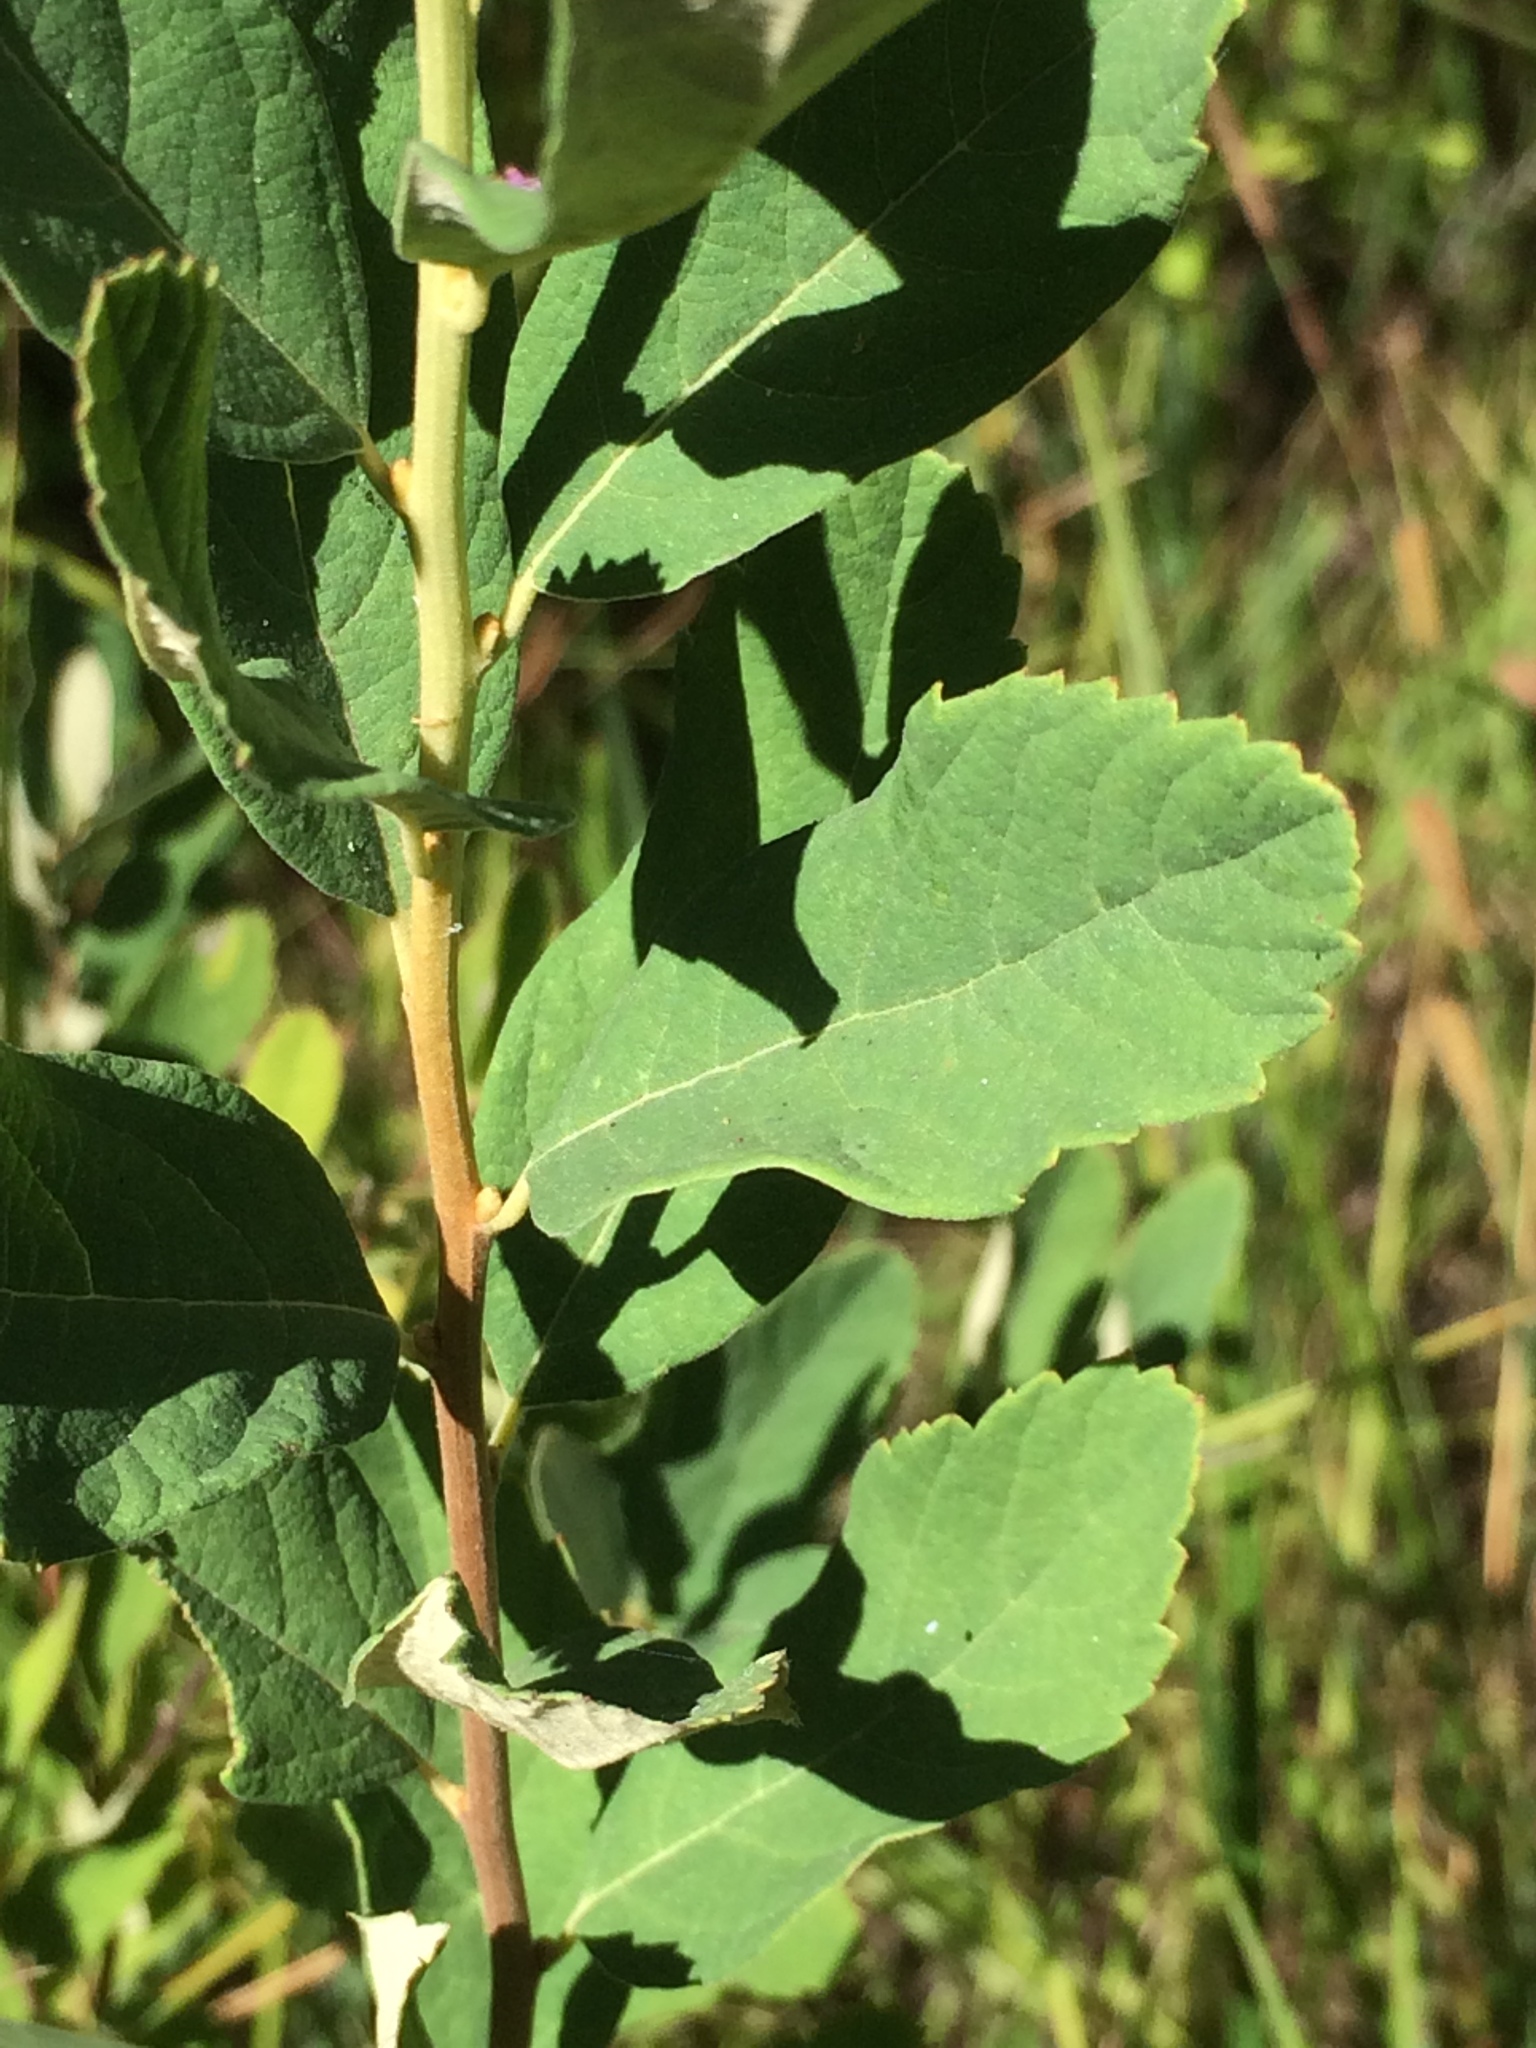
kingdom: Plantae
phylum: Tracheophyta
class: Magnoliopsida
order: Rosales
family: Rosaceae
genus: Spiraea
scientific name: Spiraea douglasii
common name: Steeplebush
